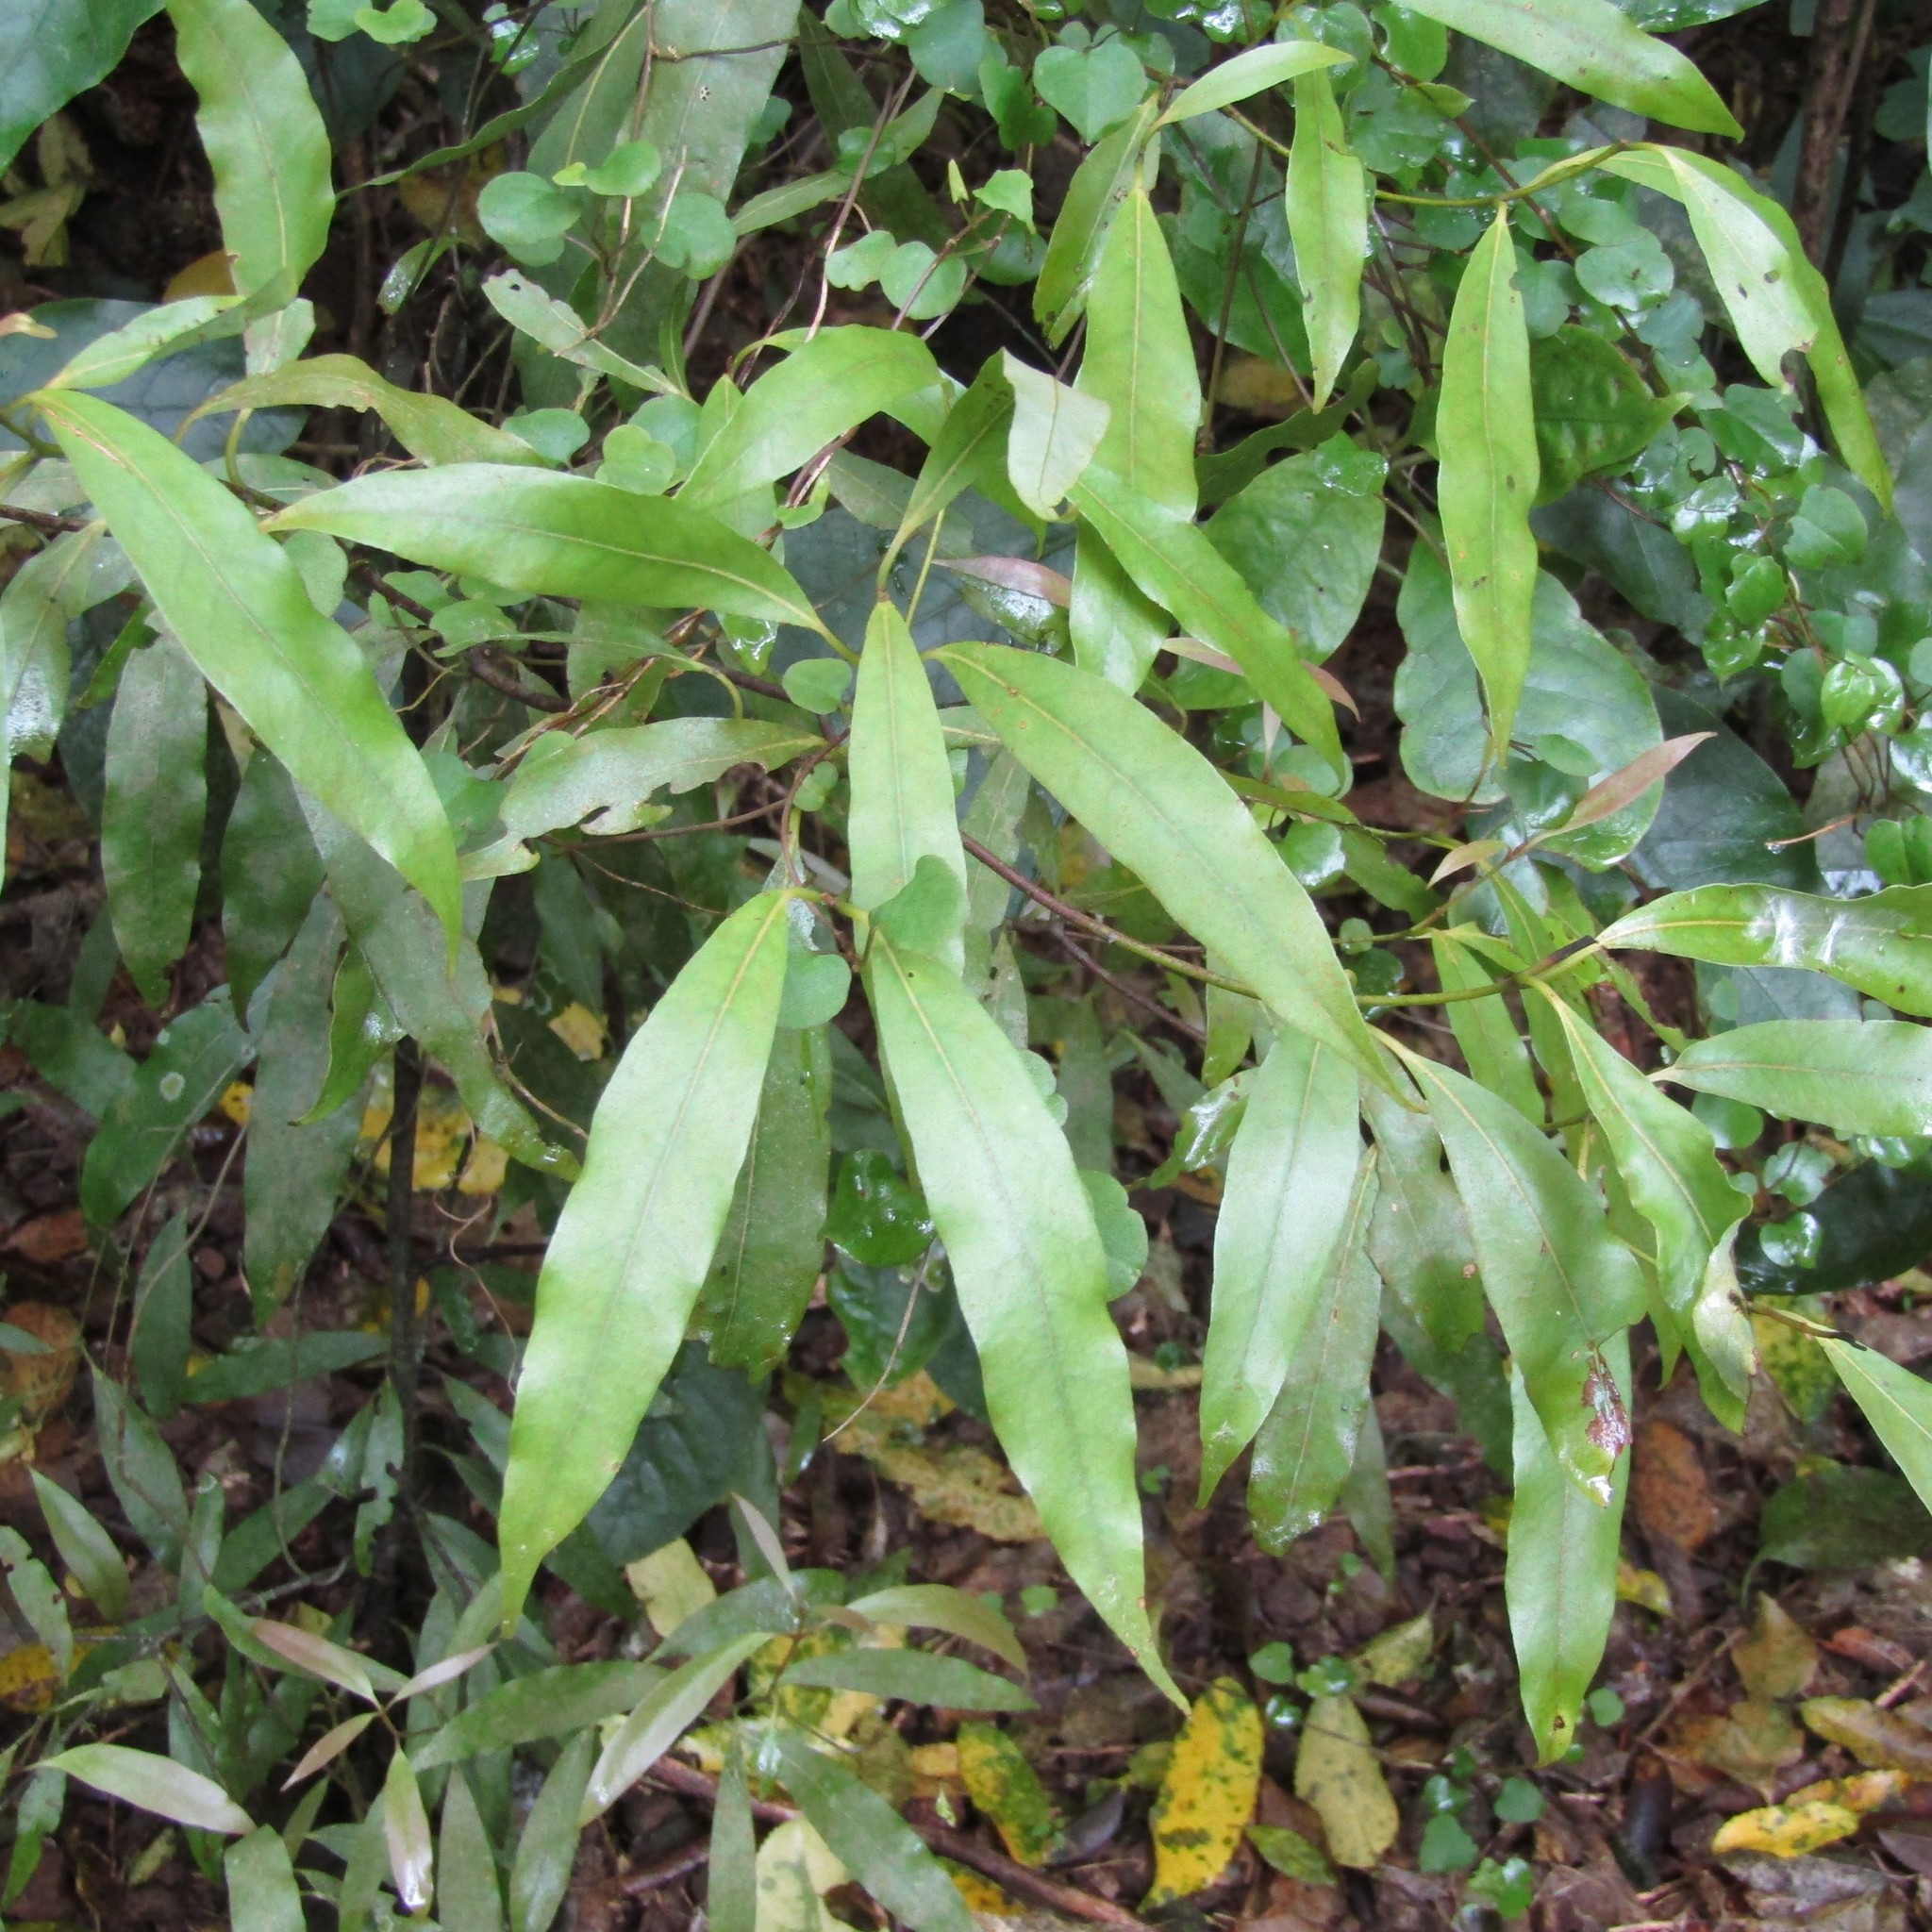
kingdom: Plantae
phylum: Tracheophyta
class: Magnoliopsida
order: Laurales
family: Lauraceae
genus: Beilschmiedia
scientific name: Beilschmiedia tawa
